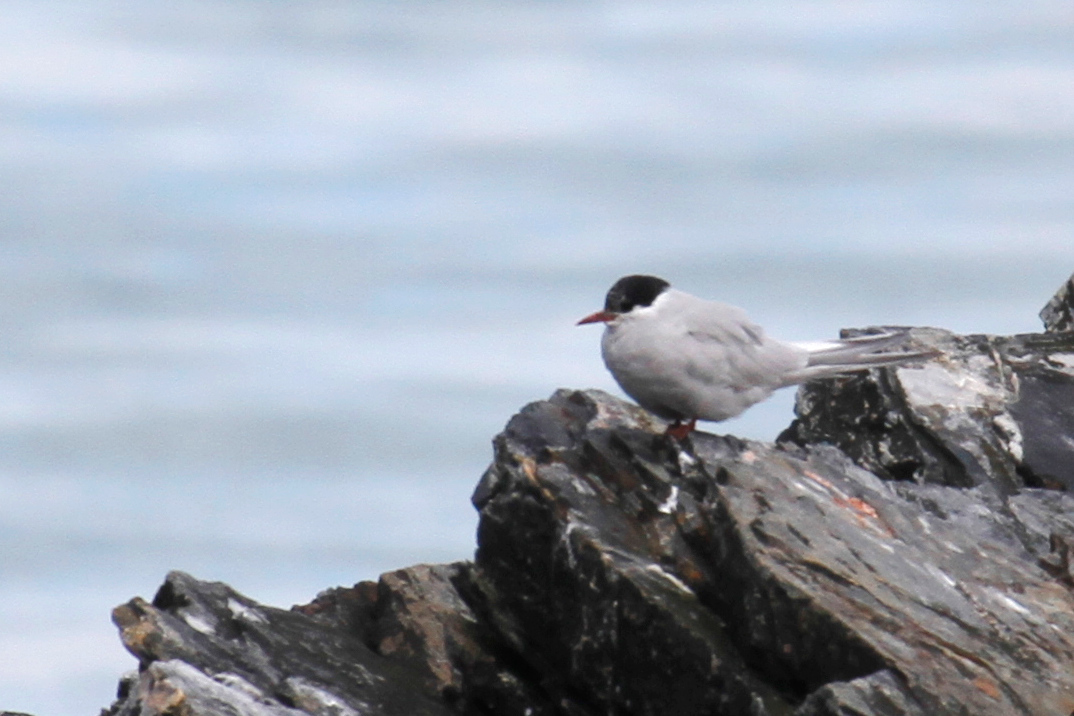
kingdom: Animalia
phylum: Chordata
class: Aves
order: Charadriiformes
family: Laridae
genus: Sterna
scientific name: Sterna vittata
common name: Antarctic tern
